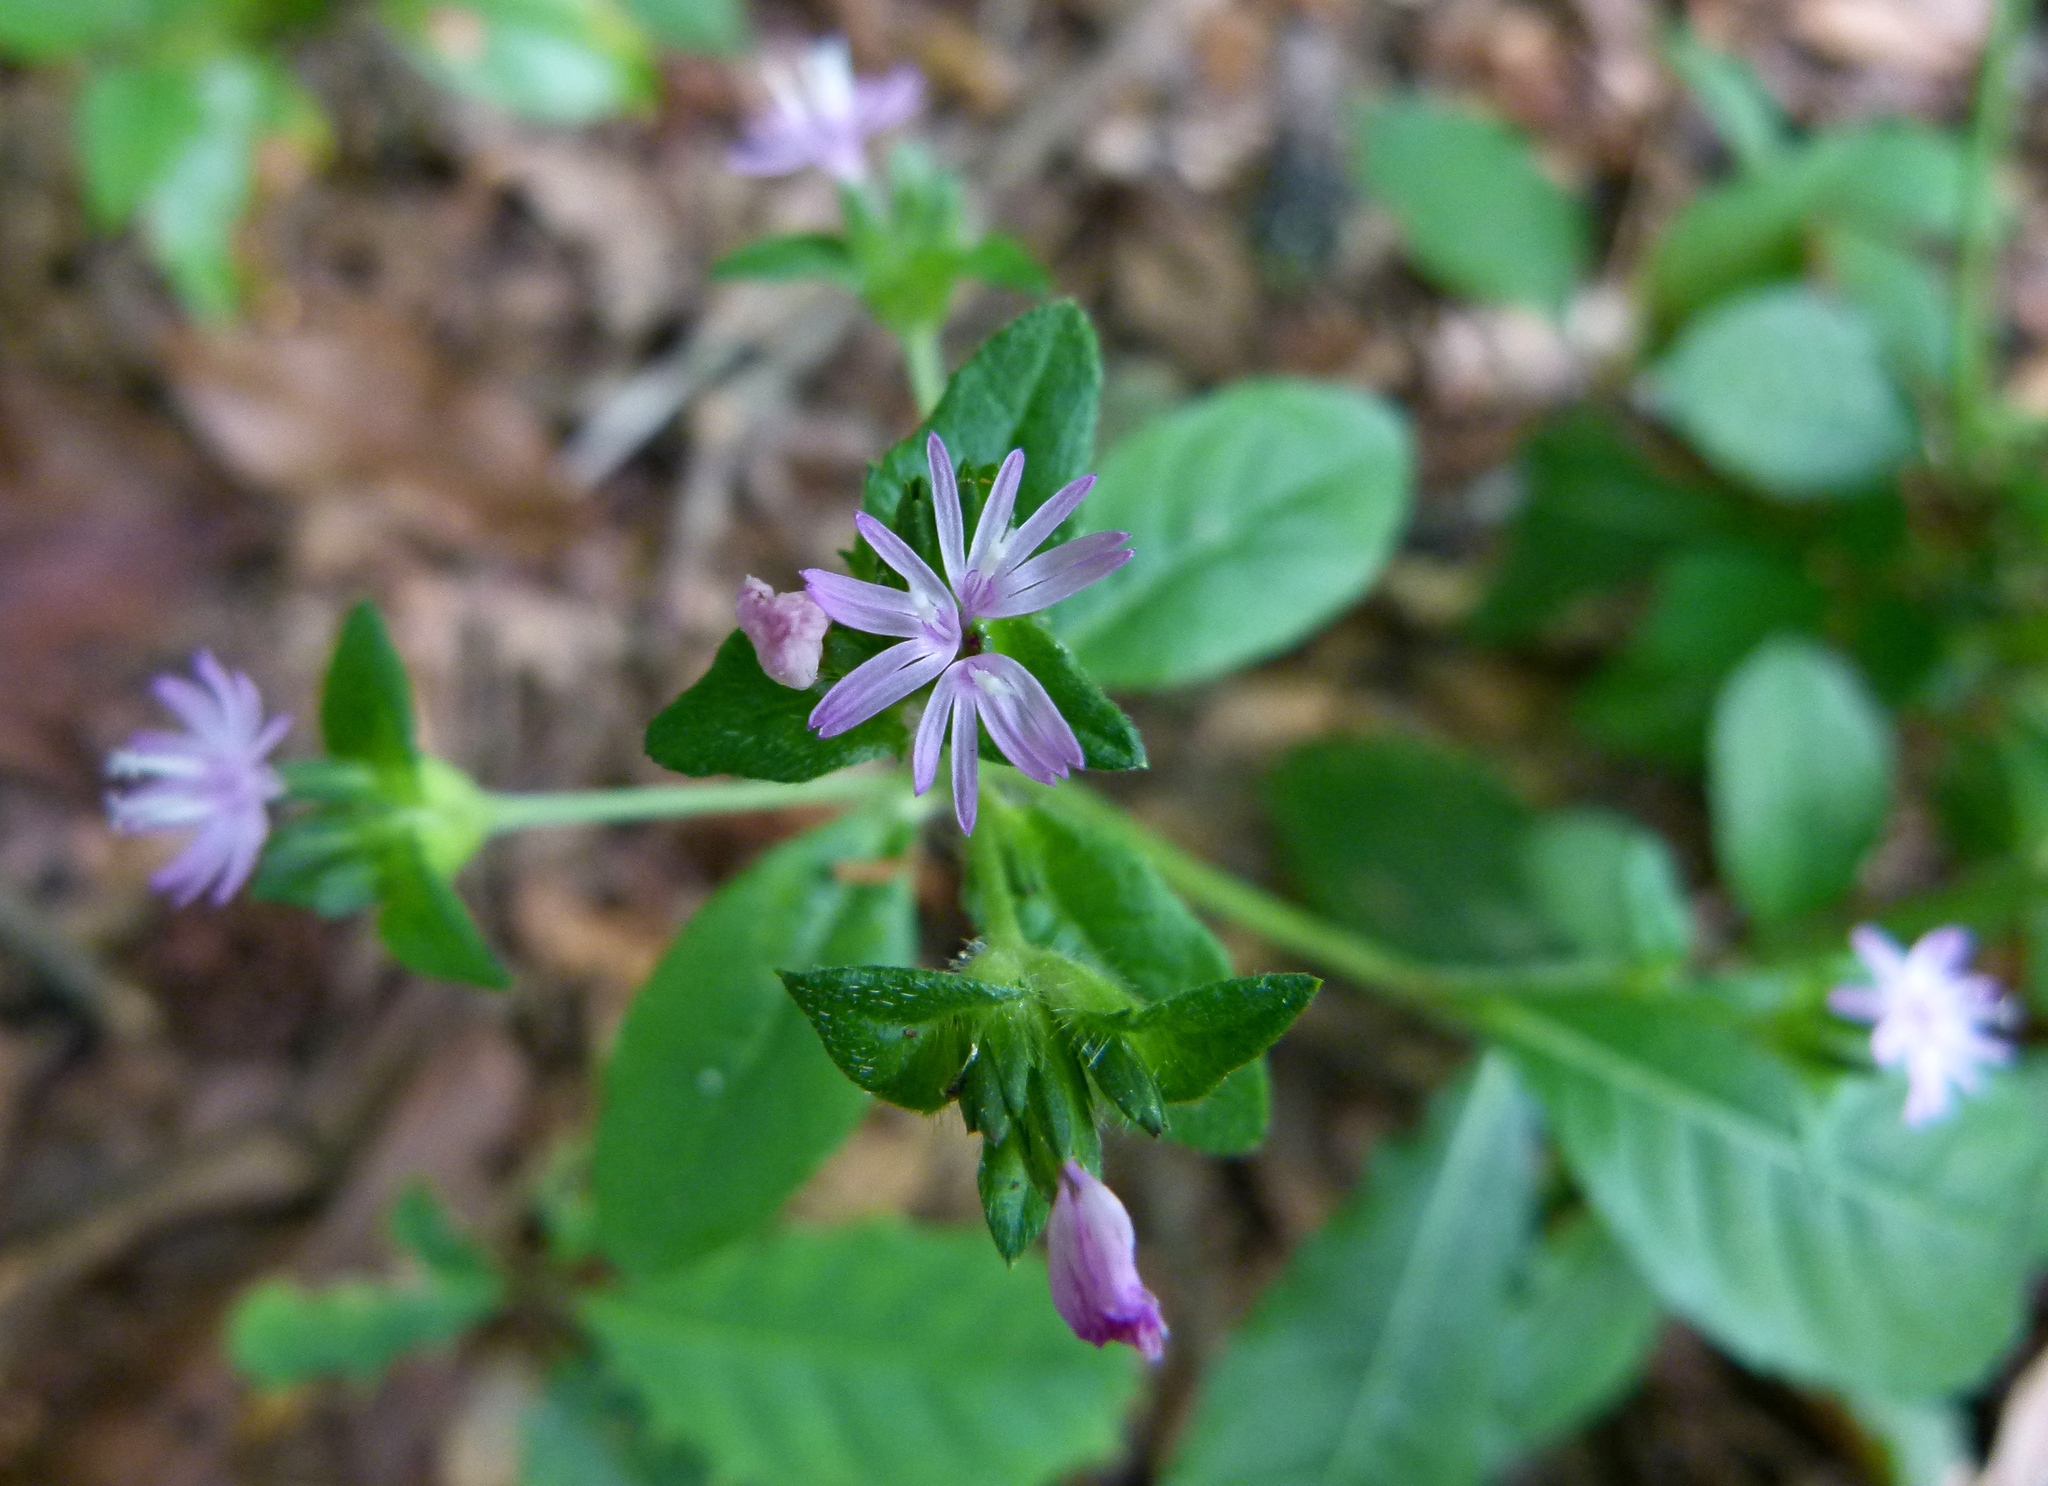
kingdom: Plantae
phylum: Tracheophyta
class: Magnoliopsida
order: Asterales
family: Asteraceae
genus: Elephantopus
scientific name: Elephantopus carolinianus
